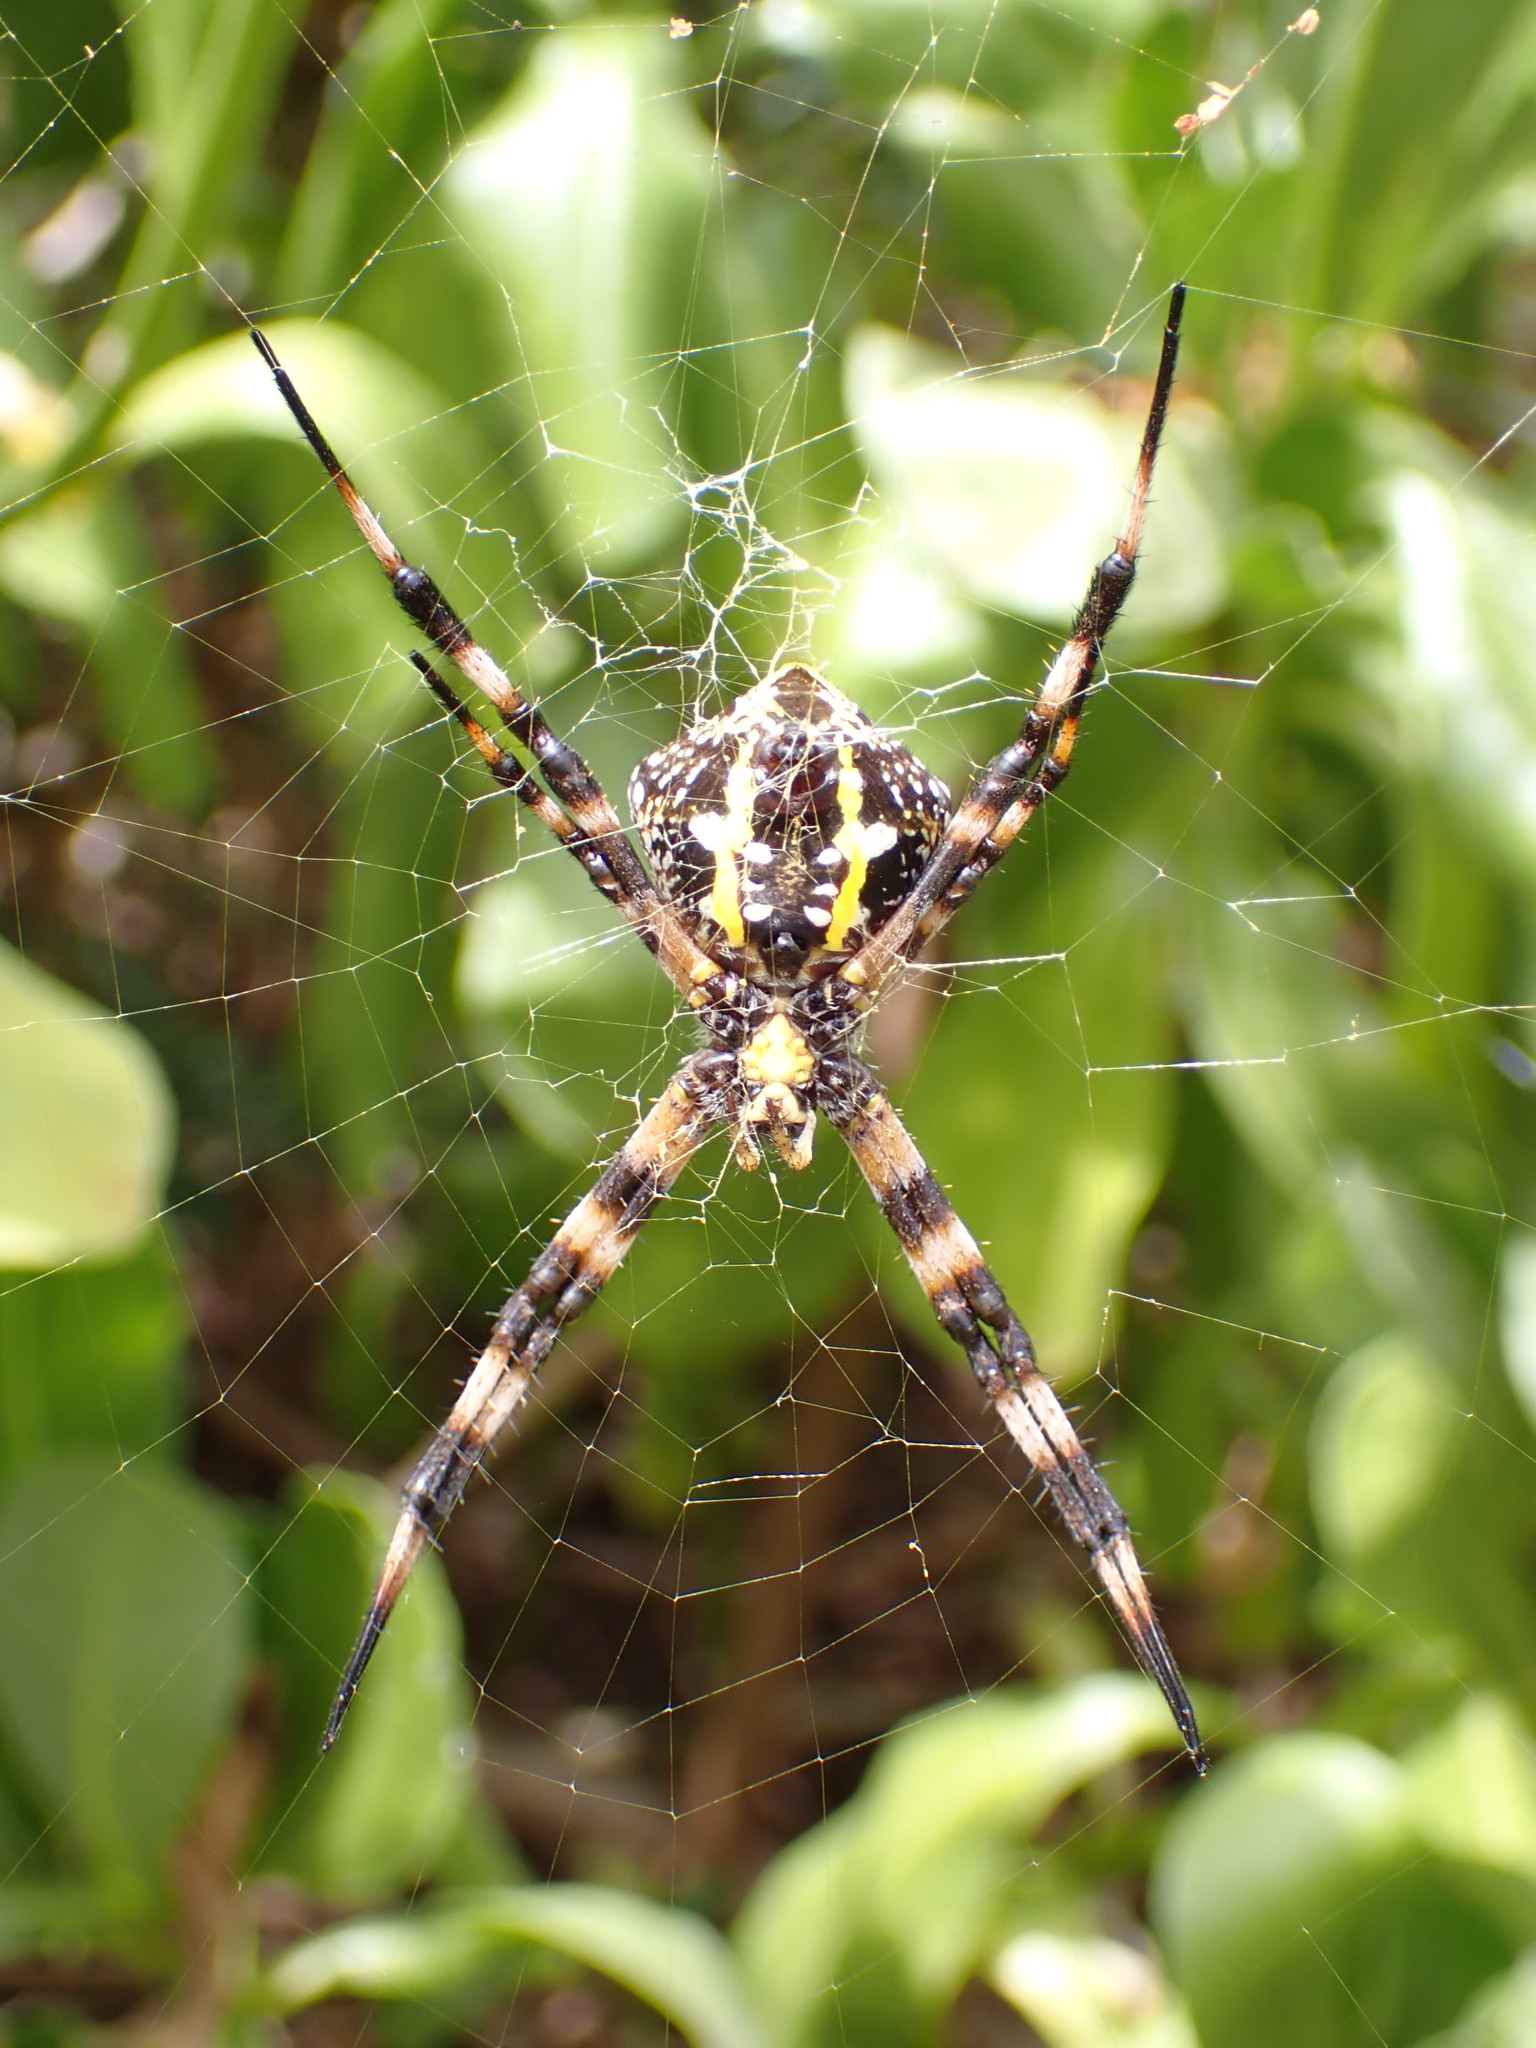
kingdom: Animalia
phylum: Arthropoda
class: Arachnida
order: Araneae
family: Araneidae
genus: Argiope
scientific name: Argiope appensa
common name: Garden spider
